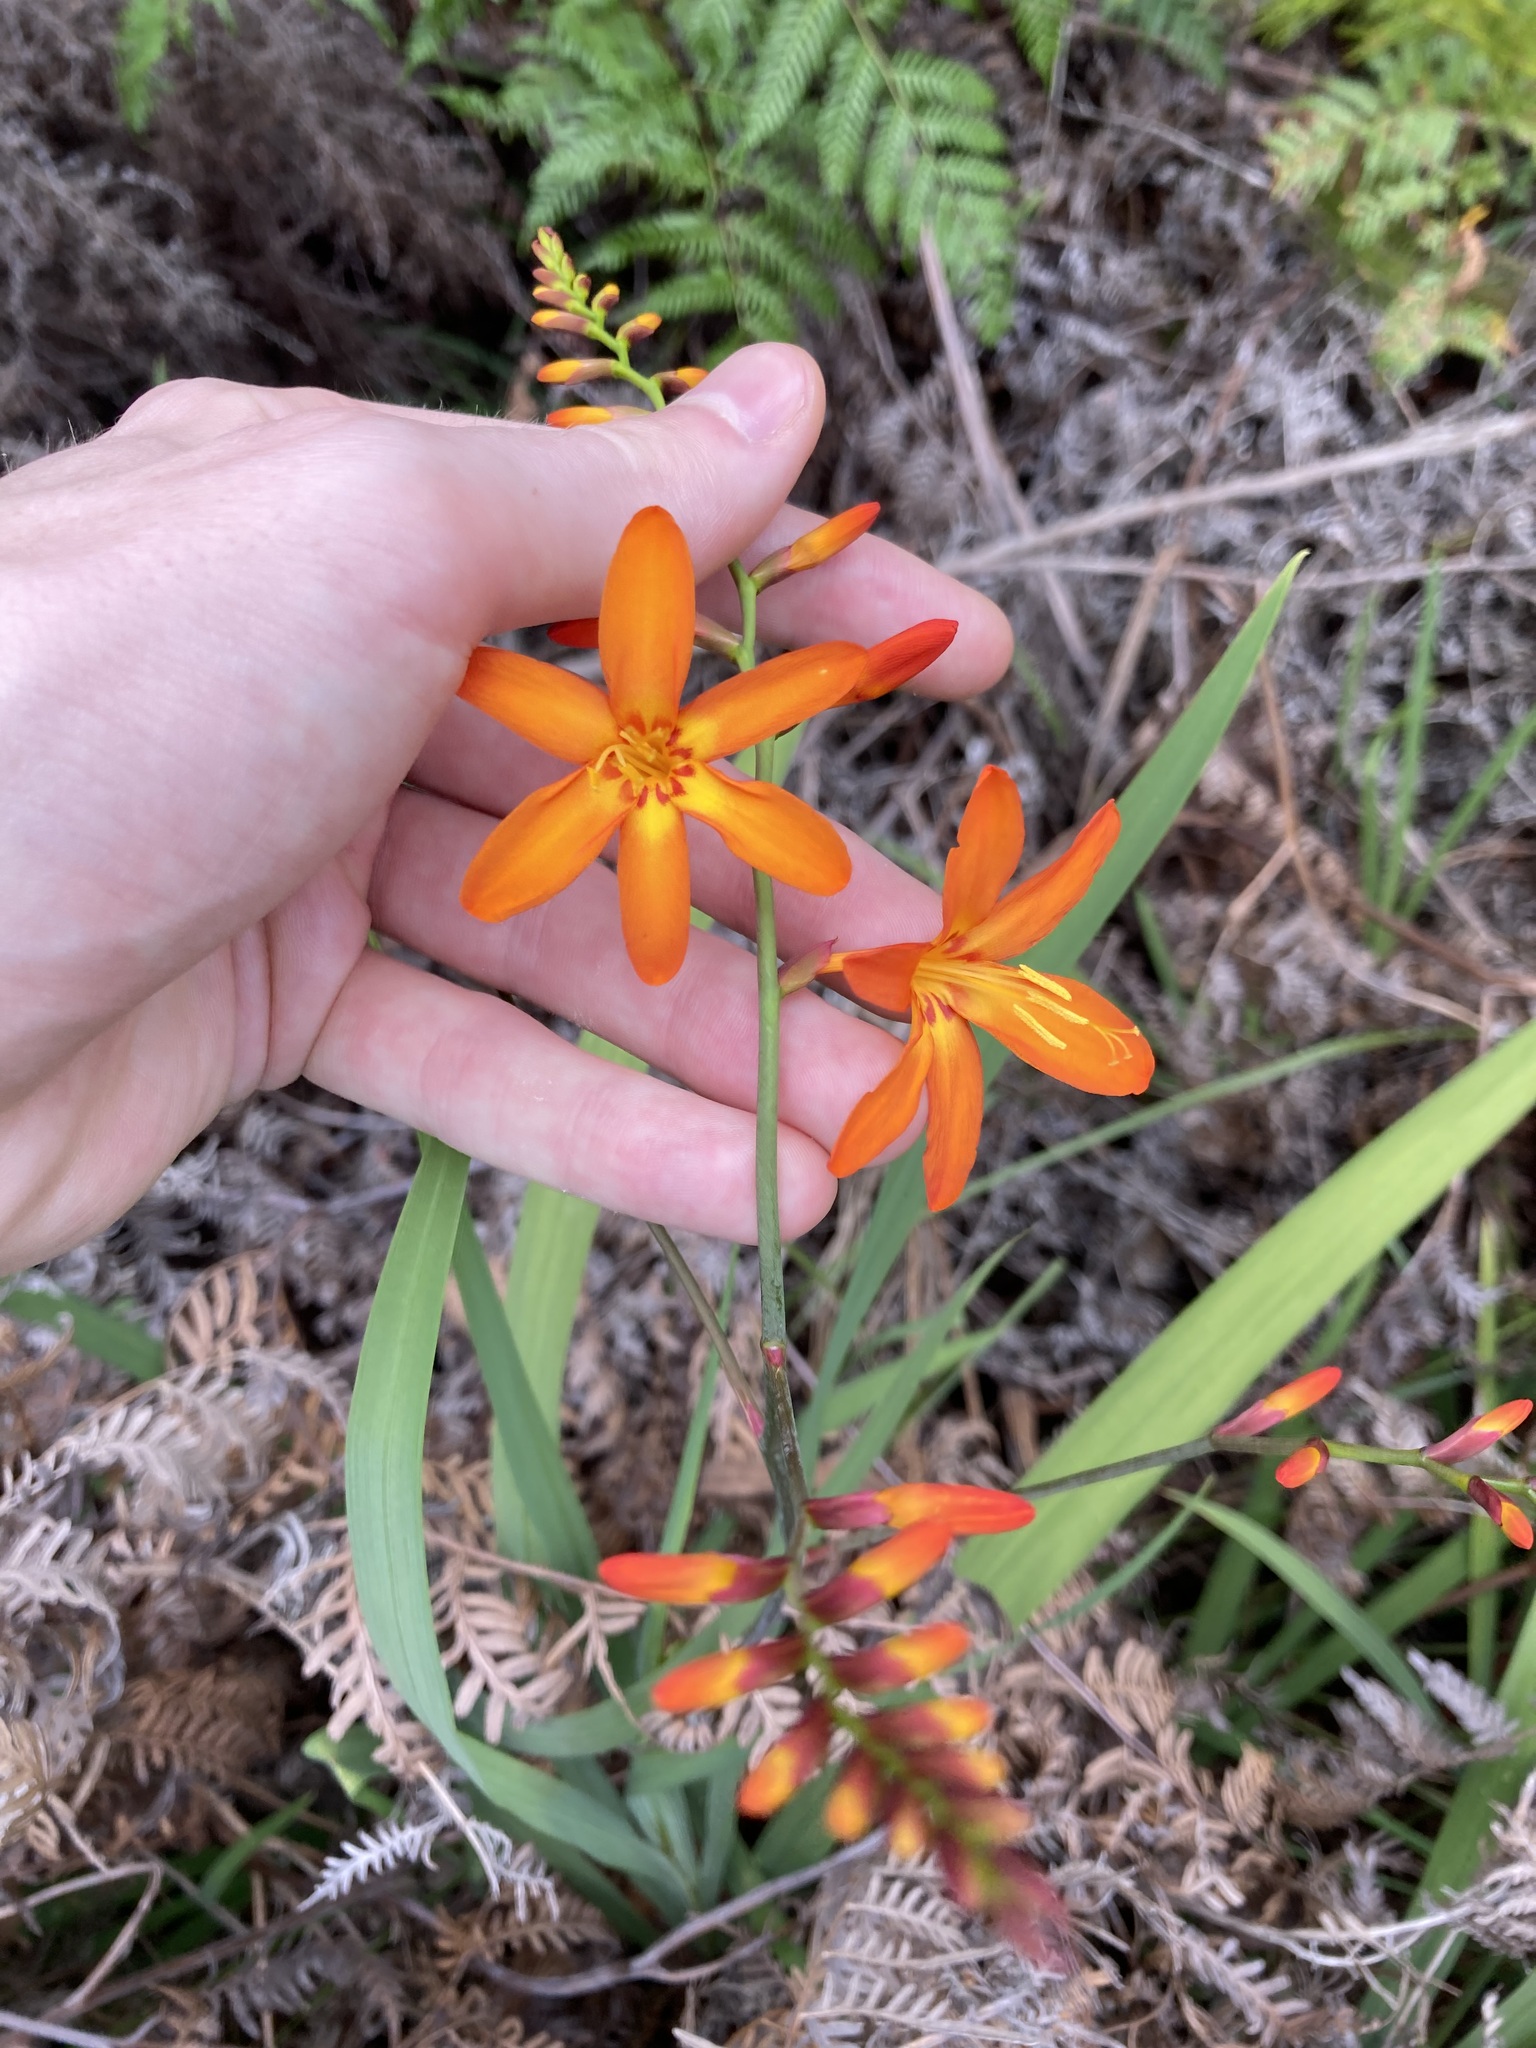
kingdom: Plantae
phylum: Tracheophyta
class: Liliopsida
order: Asparagales
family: Iridaceae
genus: Crocosmia
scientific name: Crocosmia crocosmiiflora
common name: Montbretia
